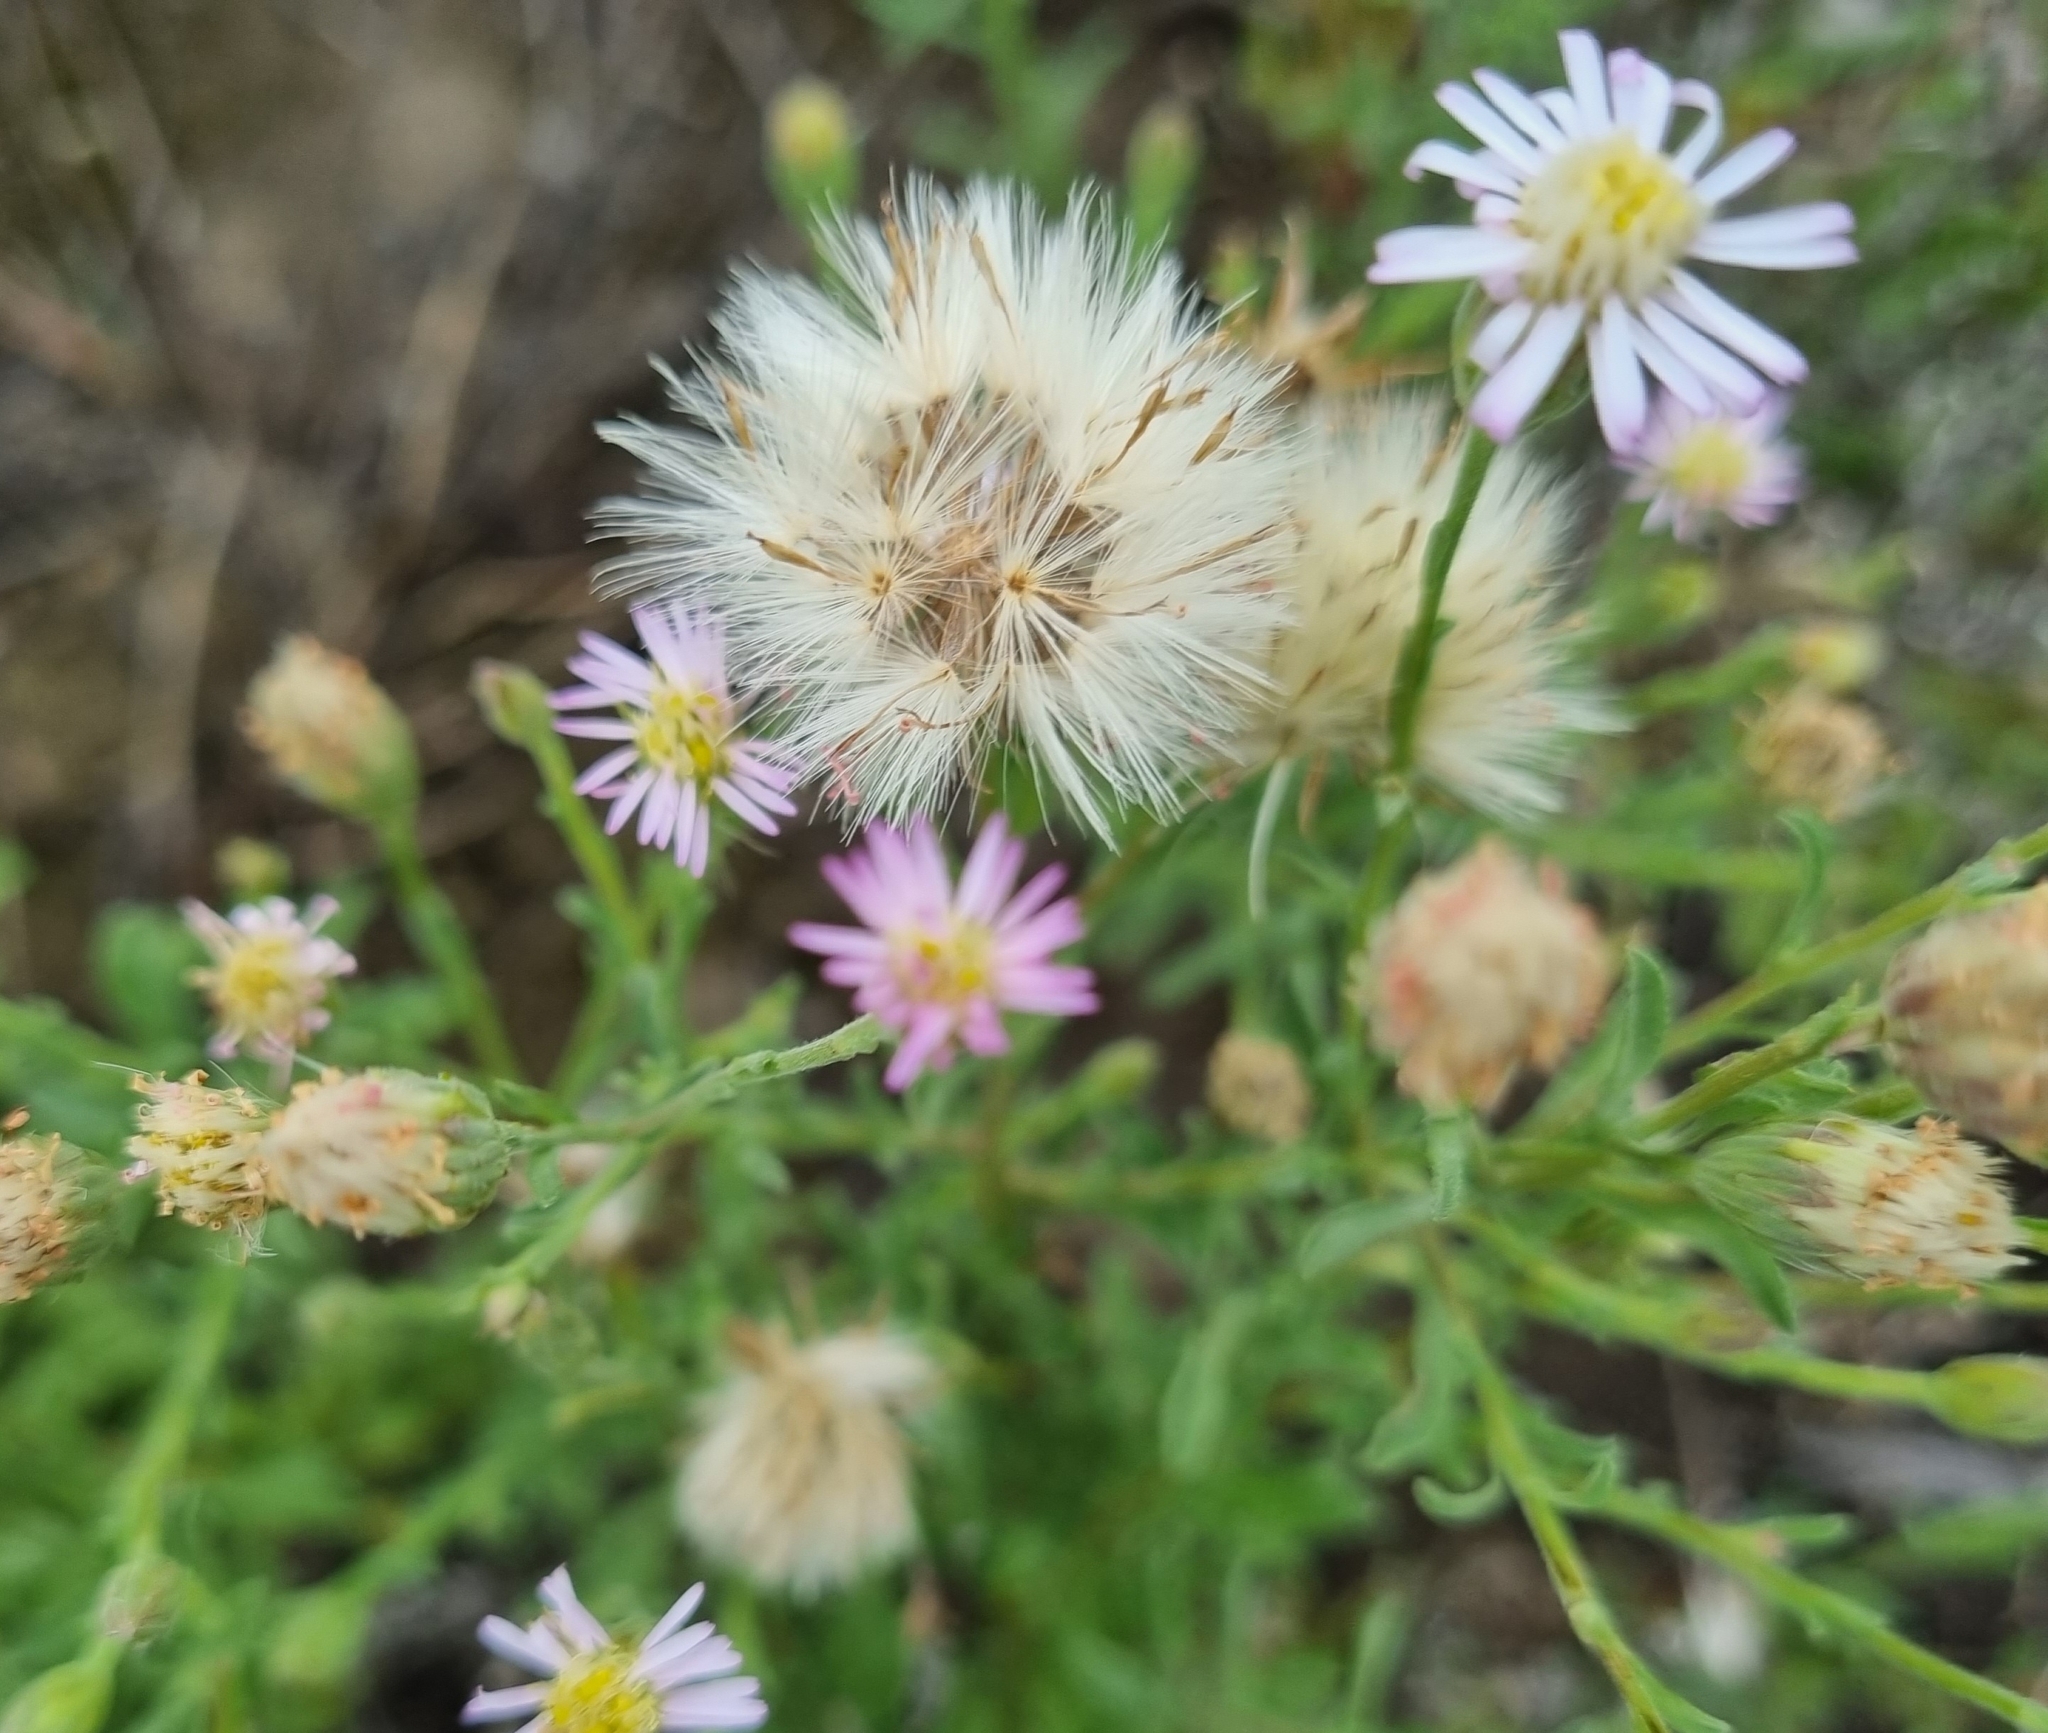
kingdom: Plantae
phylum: Tracheophyta
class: Magnoliopsida
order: Asterales
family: Asteraceae
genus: Vittadinia
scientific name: Vittadinia gracilis
